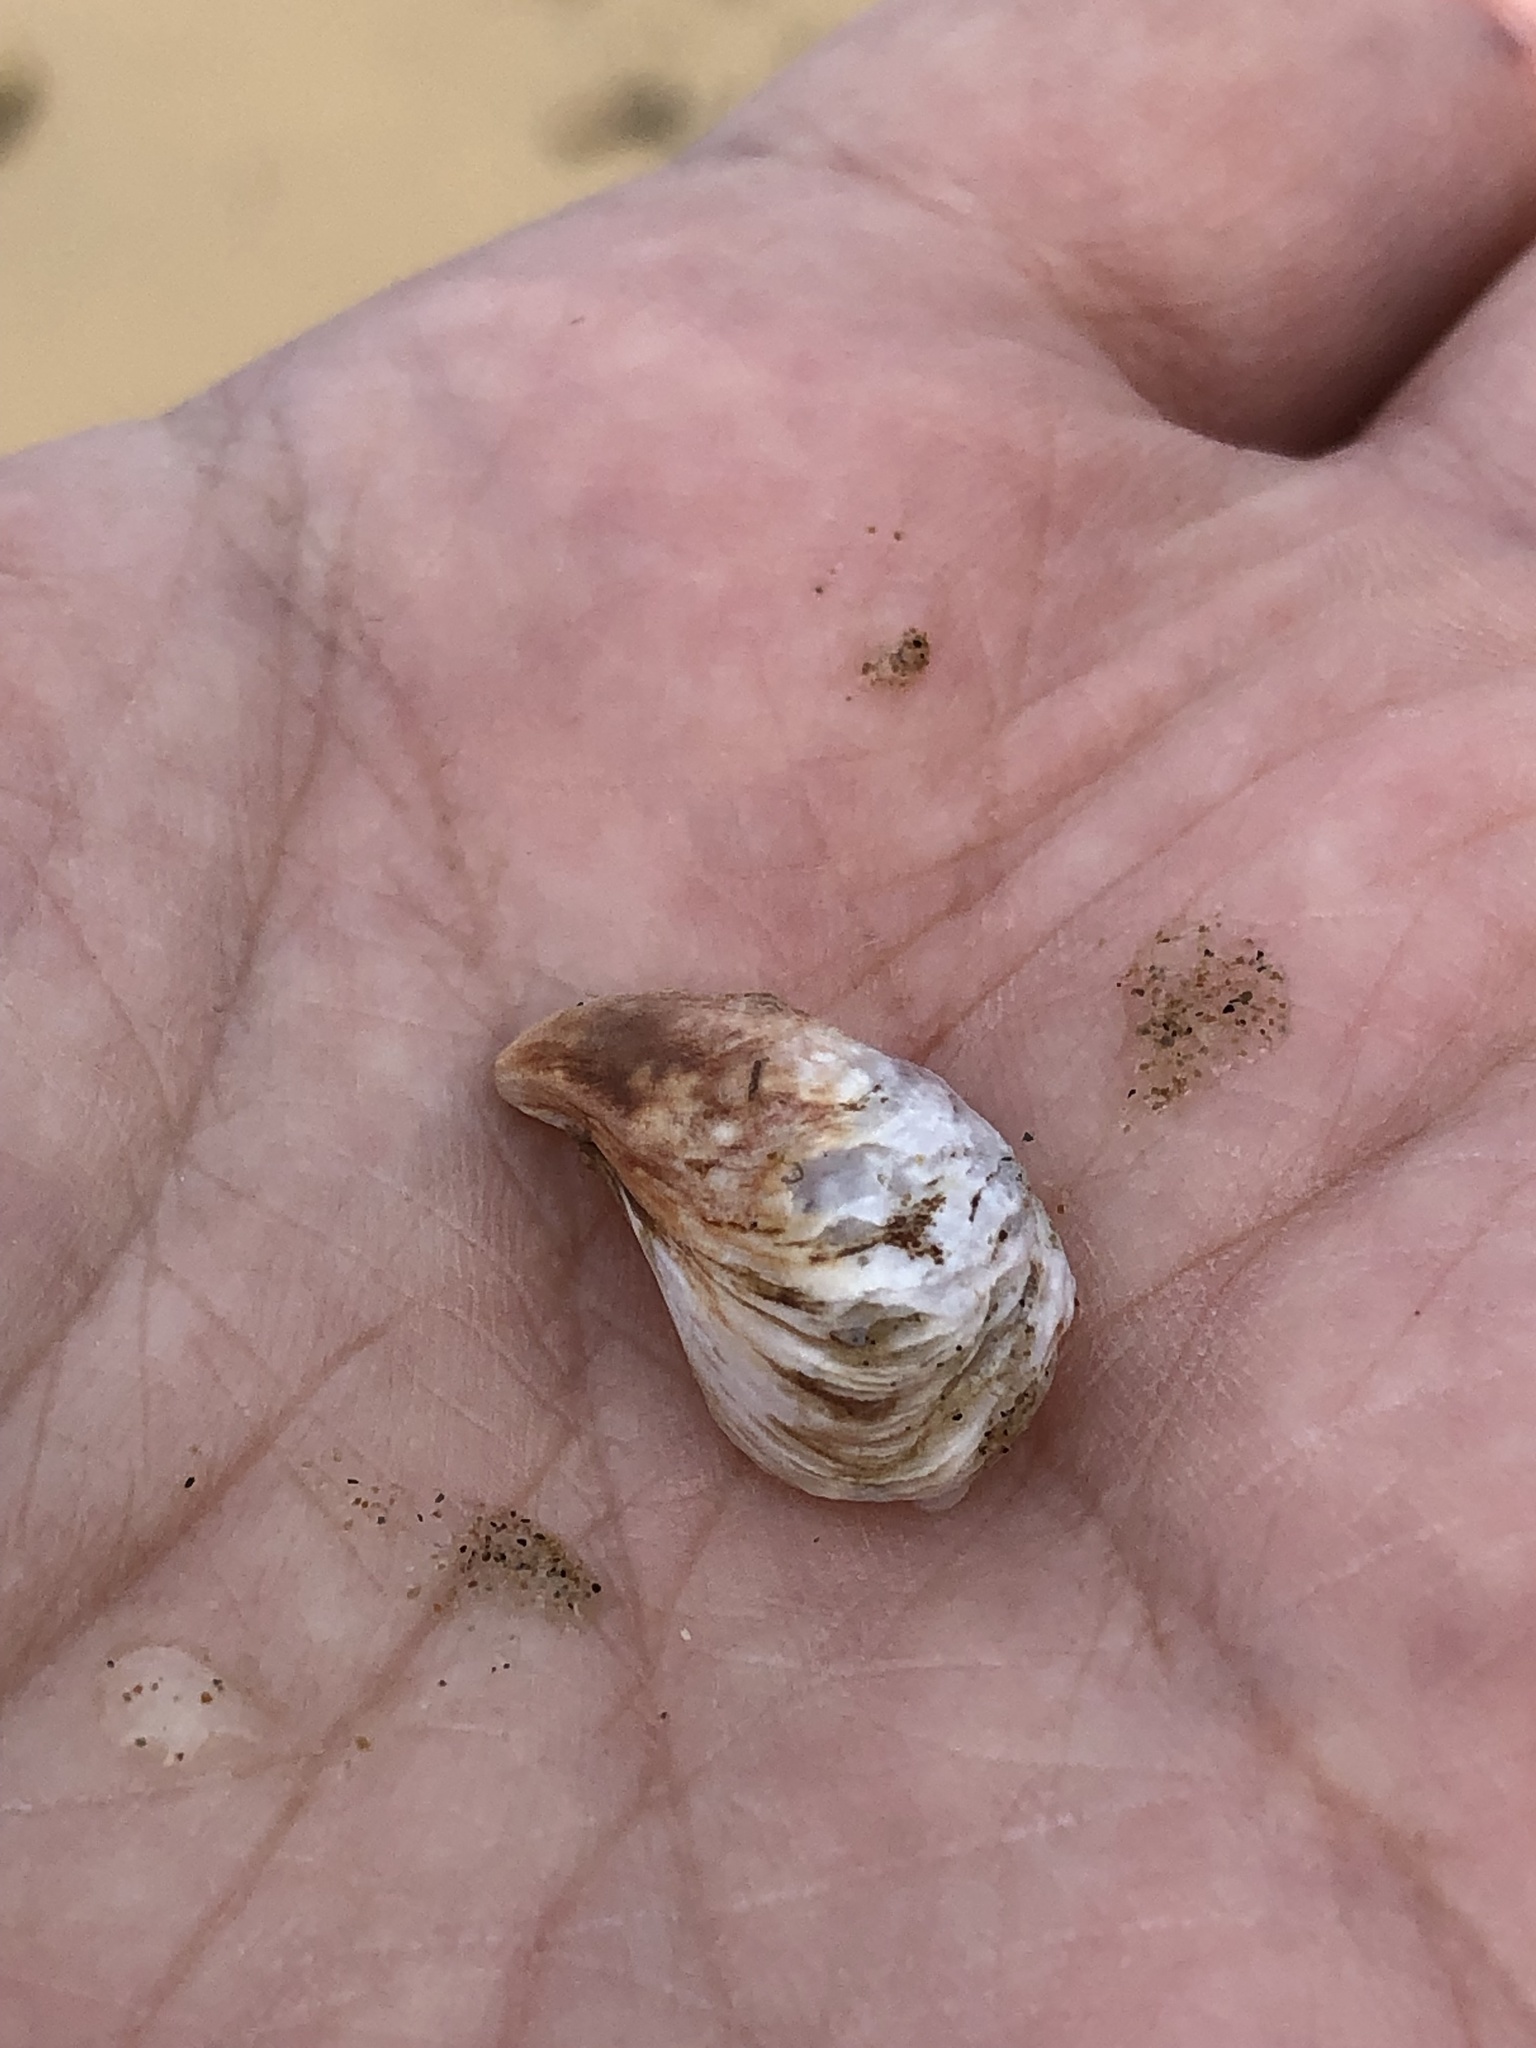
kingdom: Animalia
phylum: Mollusca
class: Bivalvia
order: Myida
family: Dreissenidae
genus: Dreissena
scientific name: Dreissena bugensis
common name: Quagga mussel
